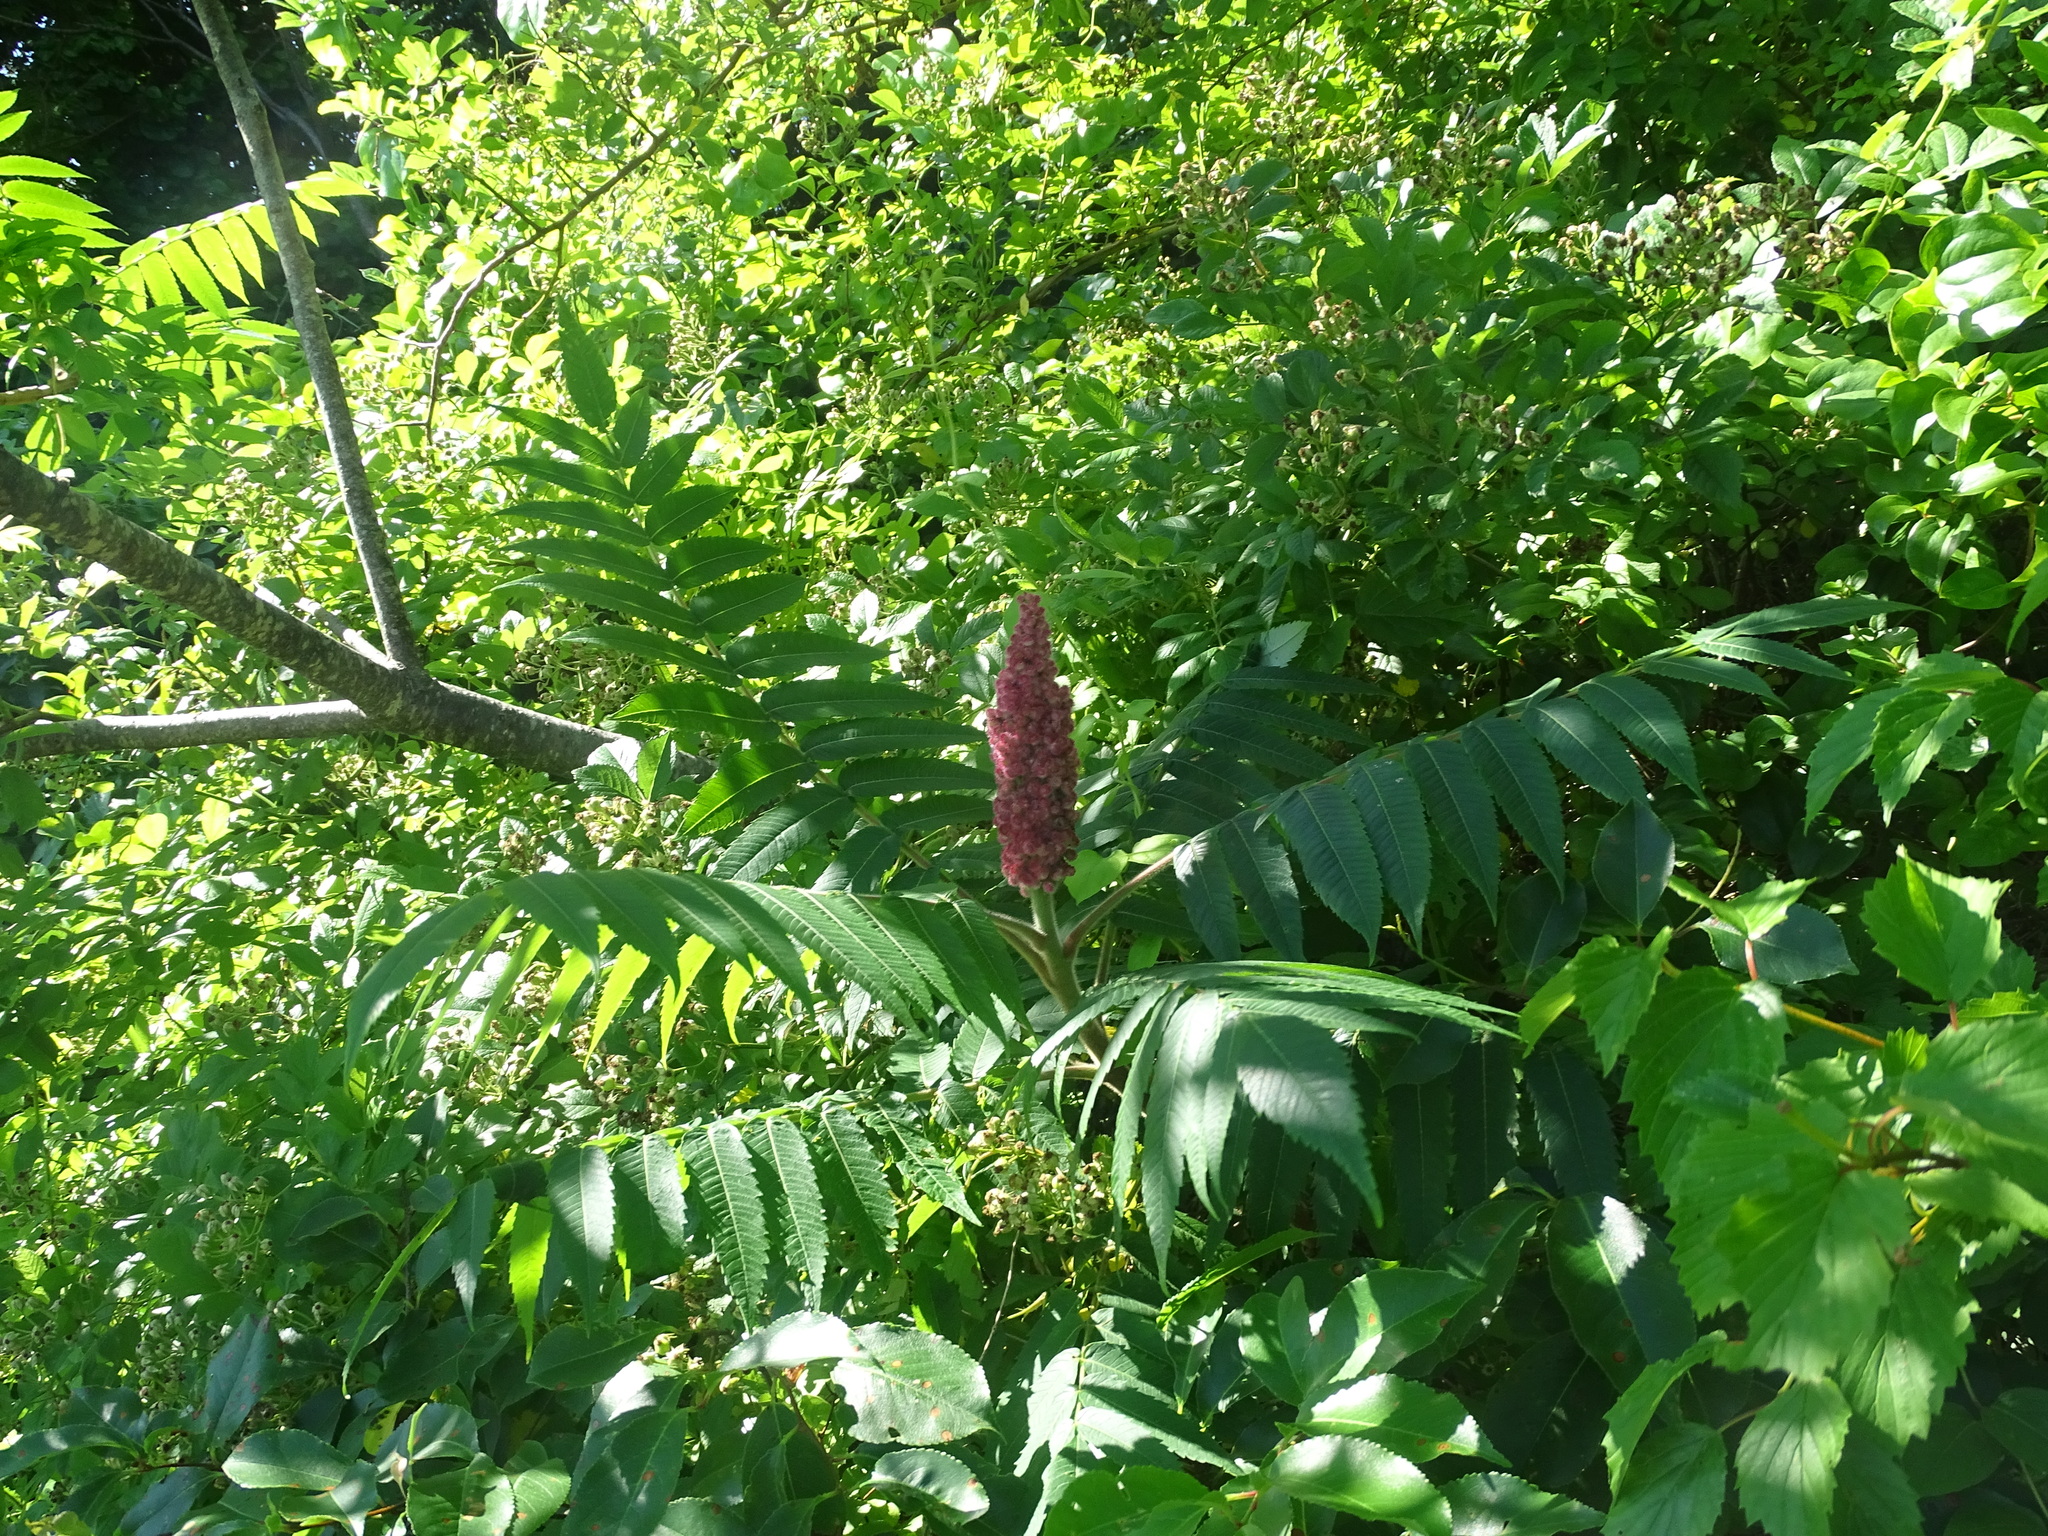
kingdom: Plantae
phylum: Tracheophyta
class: Magnoliopsida
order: Sapindales
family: Anacardiaceae
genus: Rhus
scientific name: Rhus typhina
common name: Staghorn sumac
